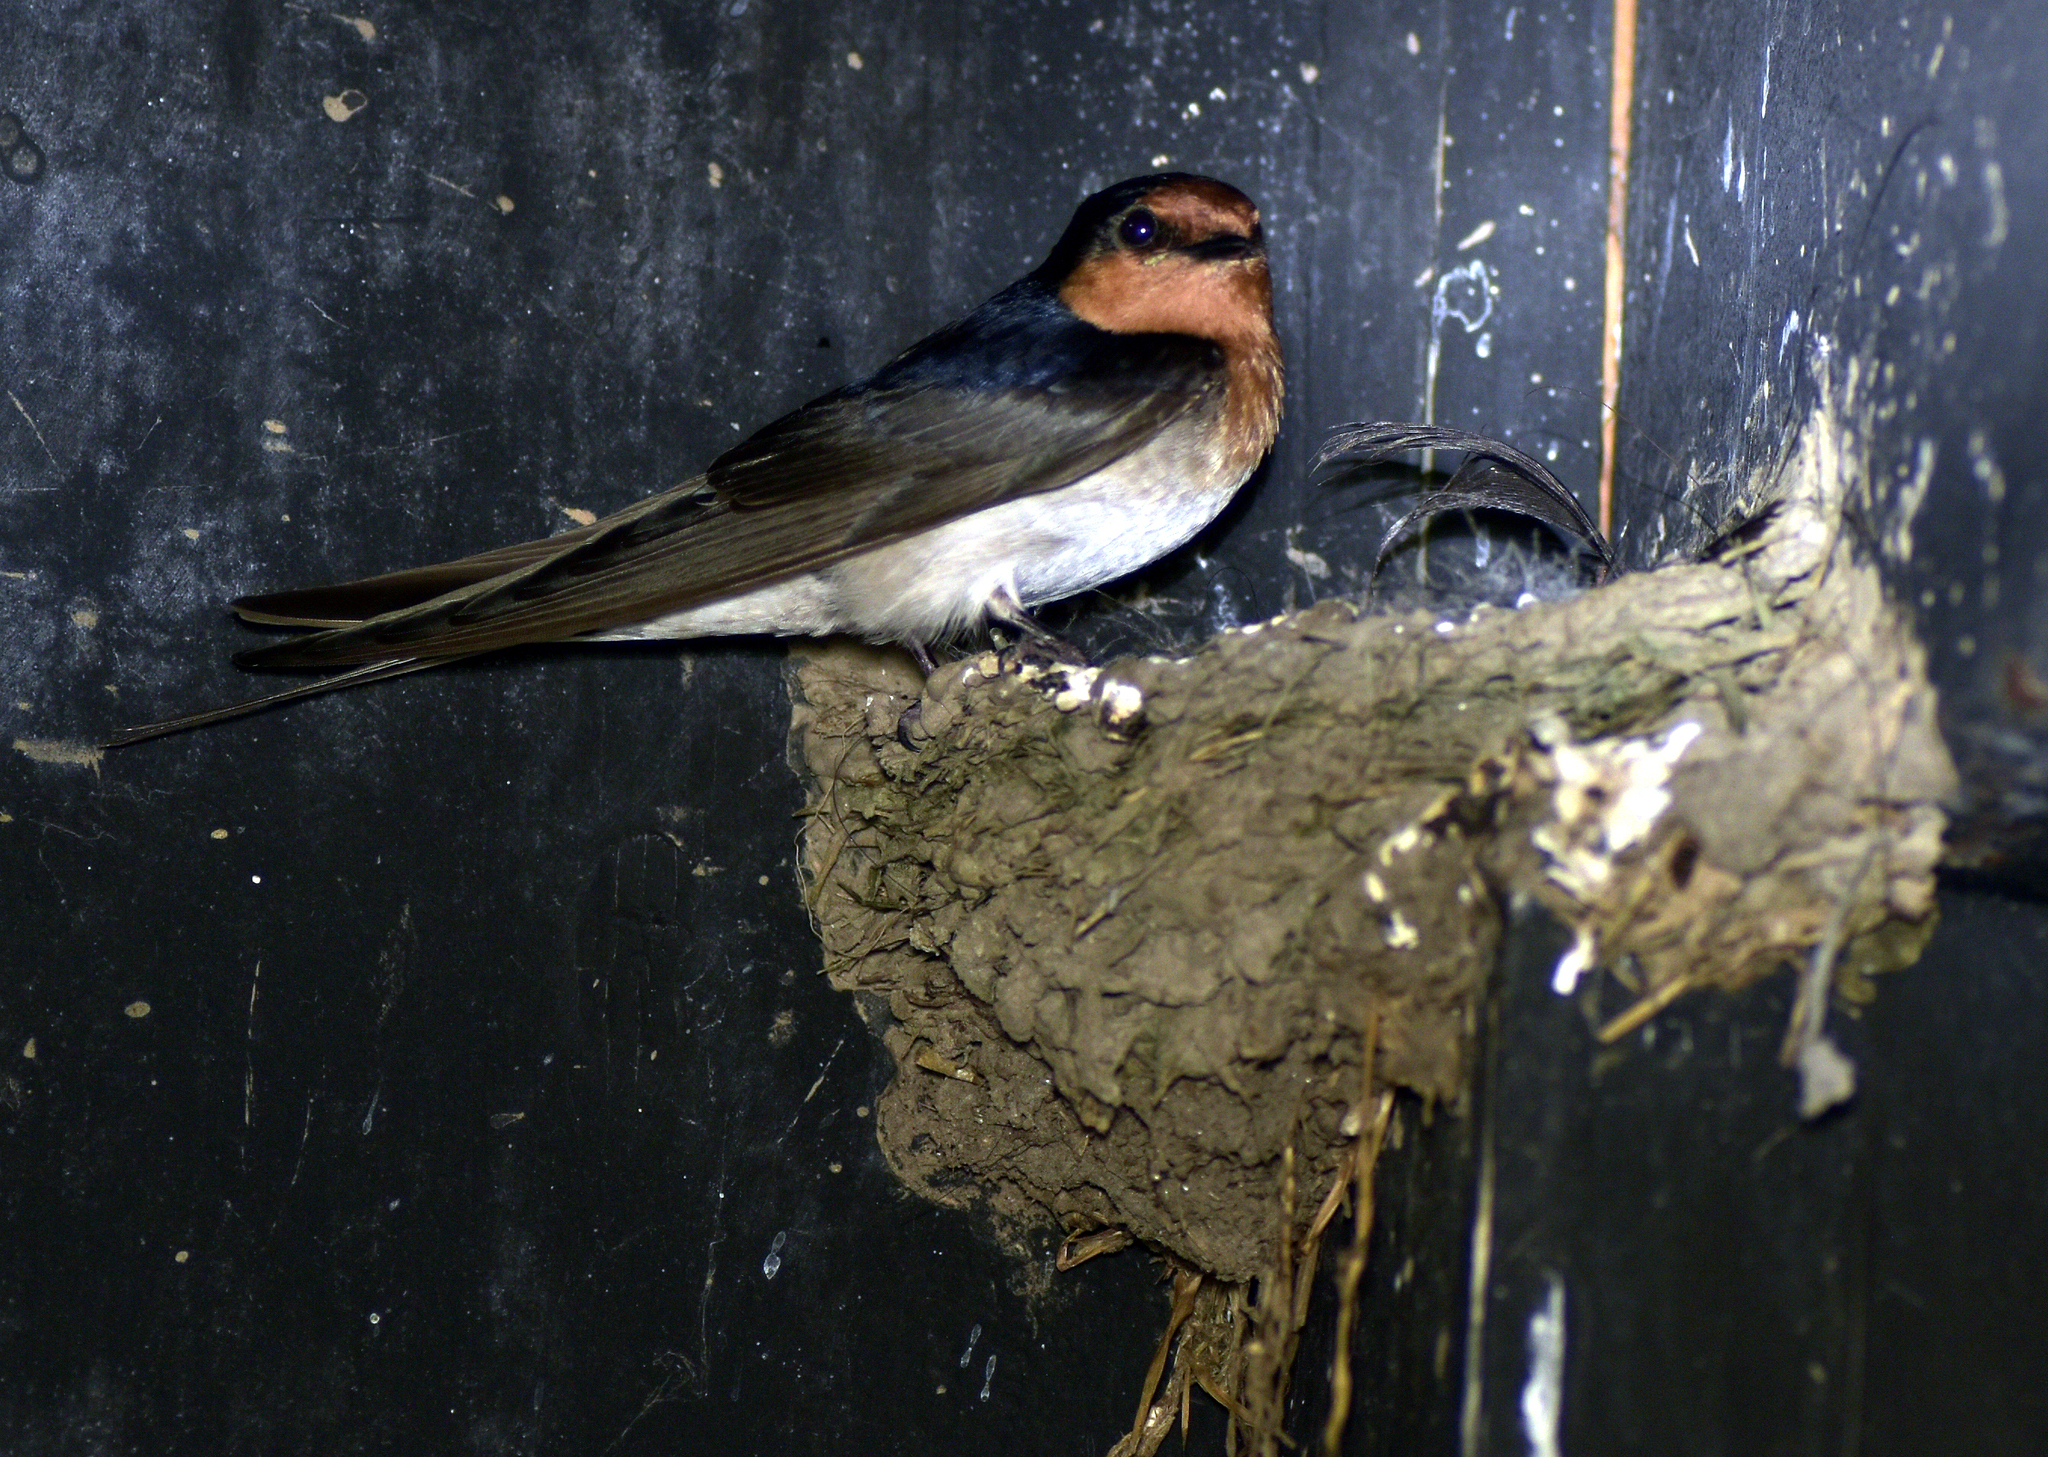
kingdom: Animalia
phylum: Chordata
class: Aves
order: Passeriformes
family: Hirundinidae
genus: Hirundo
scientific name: Hirundo neoxena
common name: Welcome swallow
